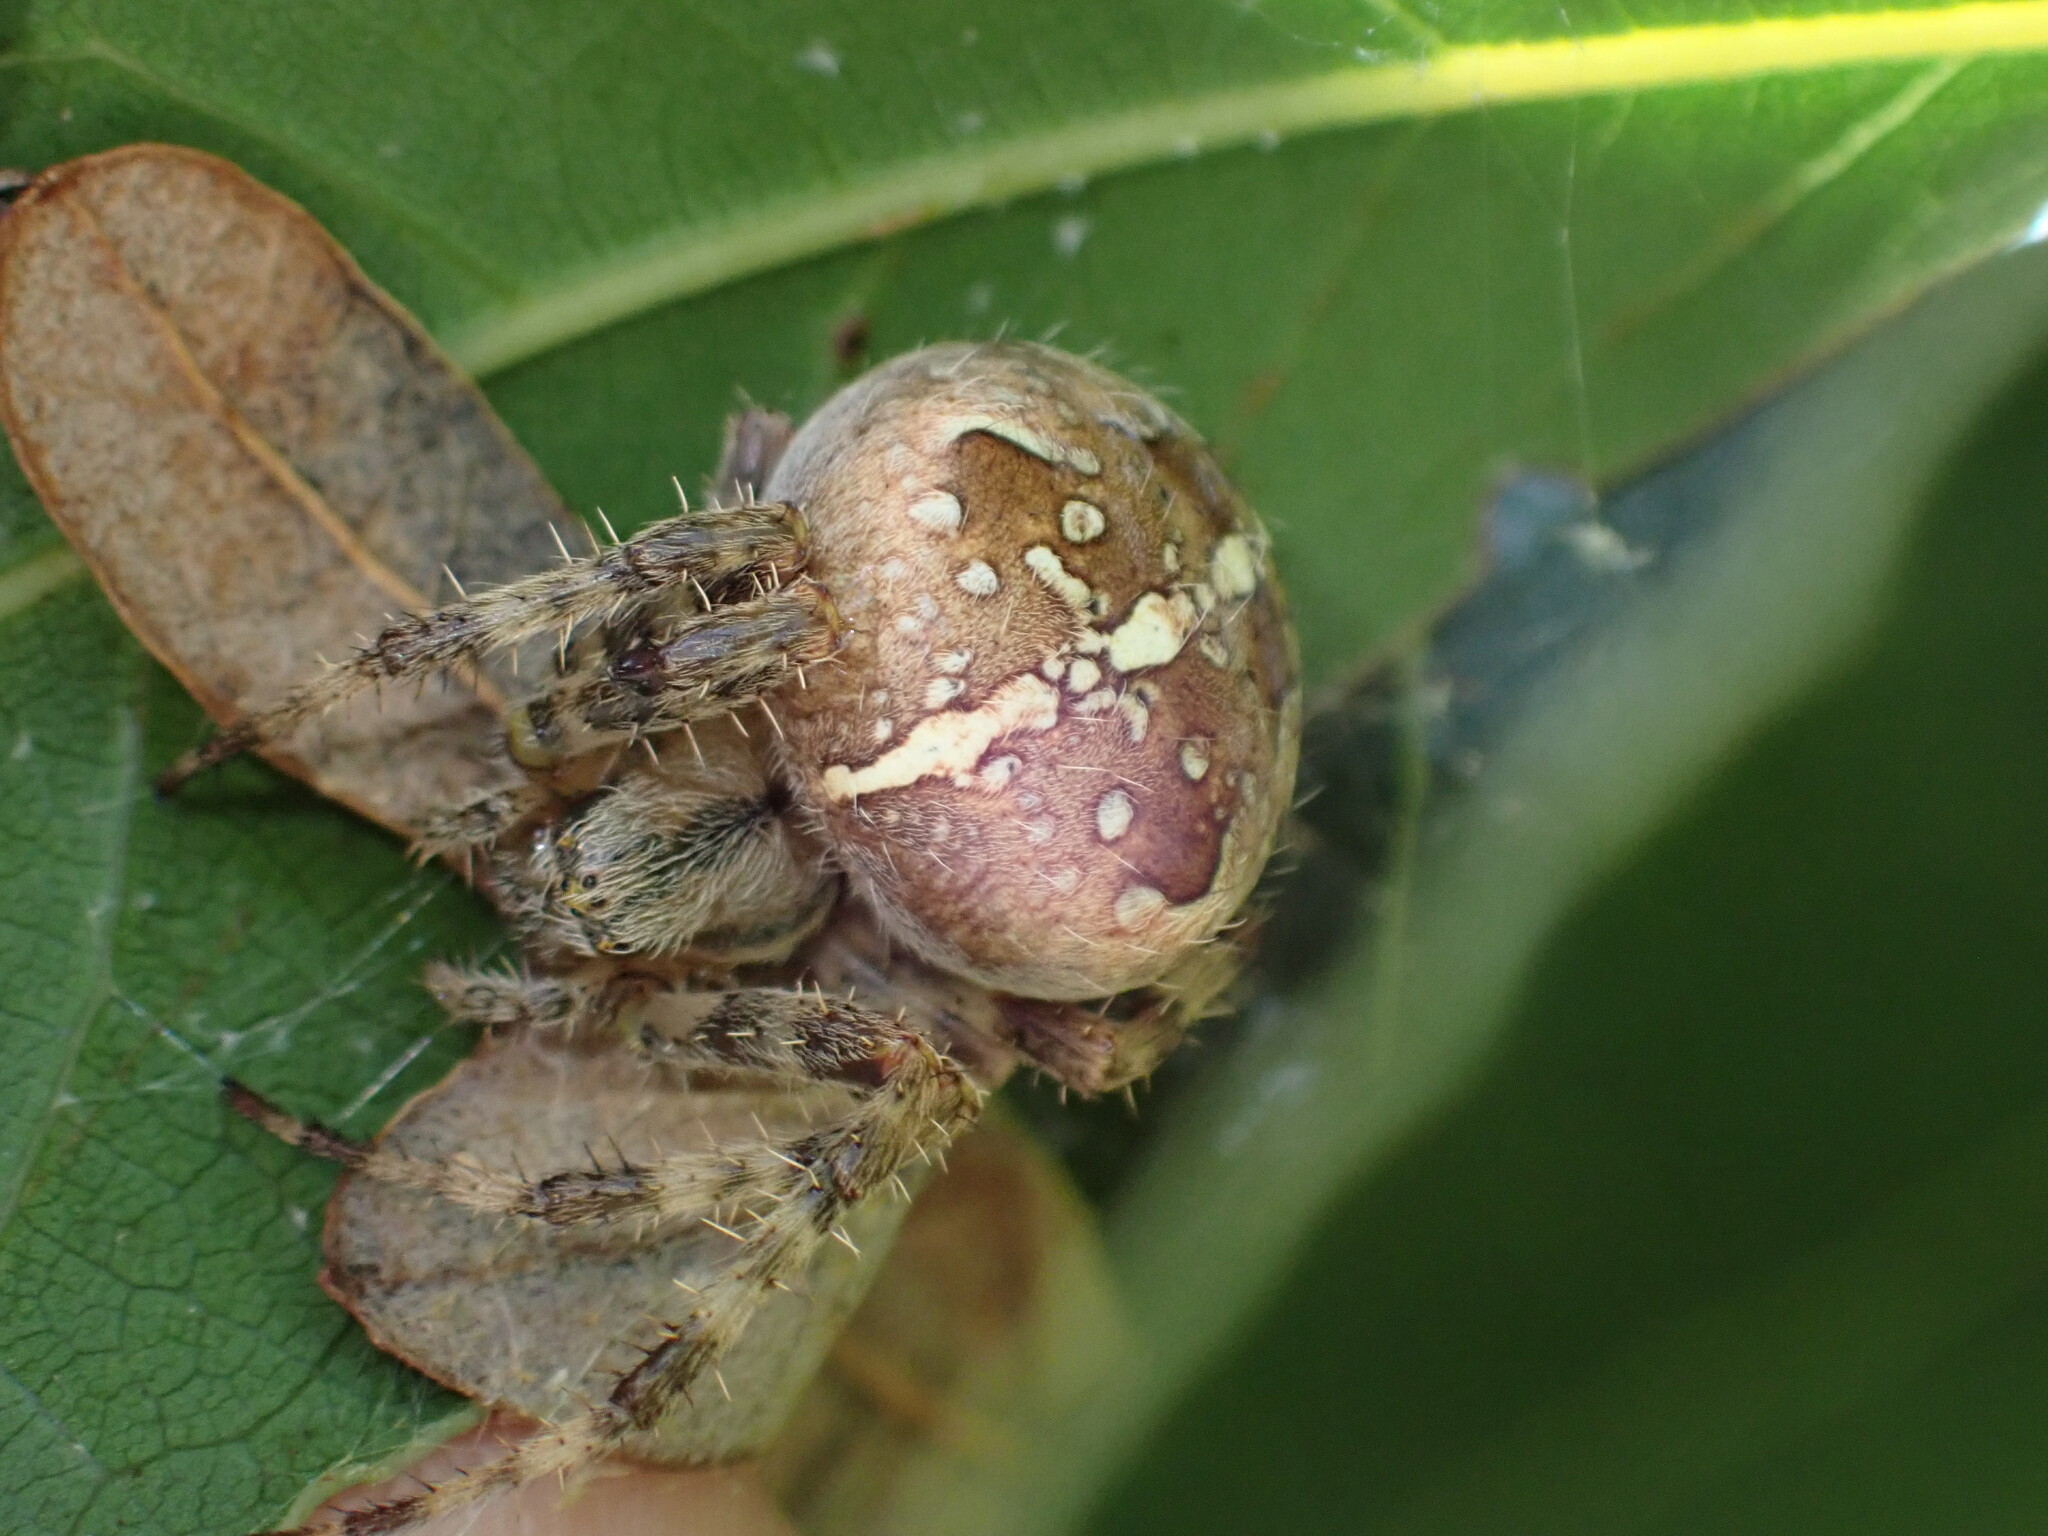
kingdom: Animalia
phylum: Arthropoda
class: Arachnida
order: Araneae
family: Araneidae
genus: Araneus
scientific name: Araneus diadematus
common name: Cross orbweaver
